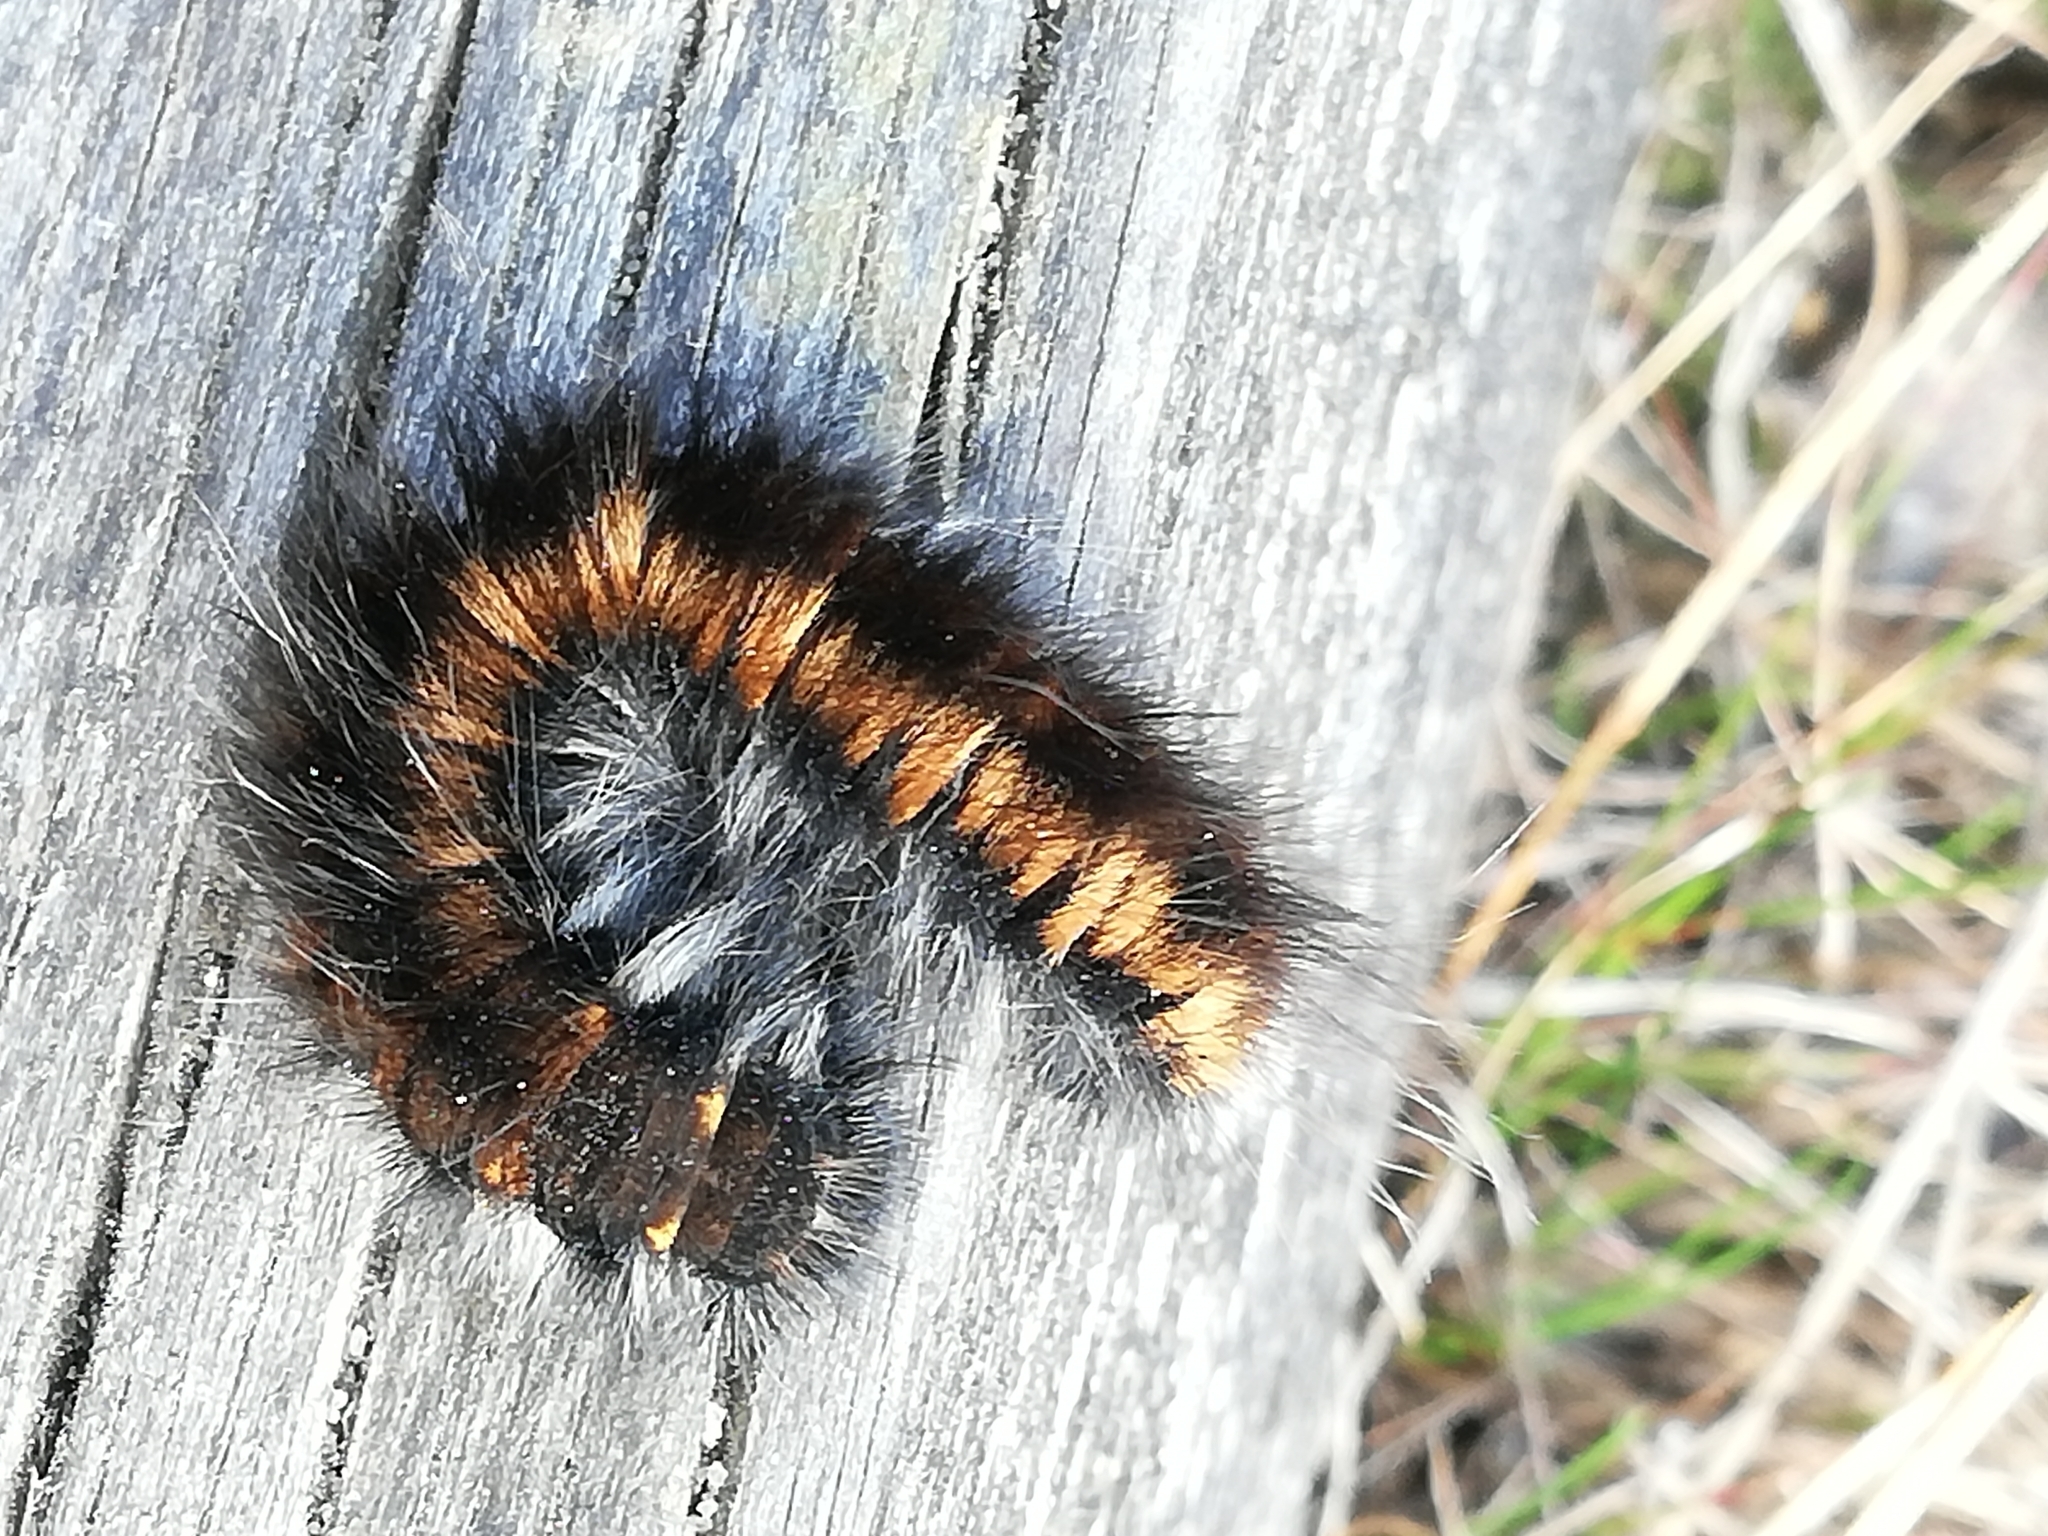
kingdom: Animalia
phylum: Arthropoda
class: Insecta
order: Lepidoptera
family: Lasiocampidae
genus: Macrothylacia
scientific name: Macrothylacia rubi
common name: Fox moth
